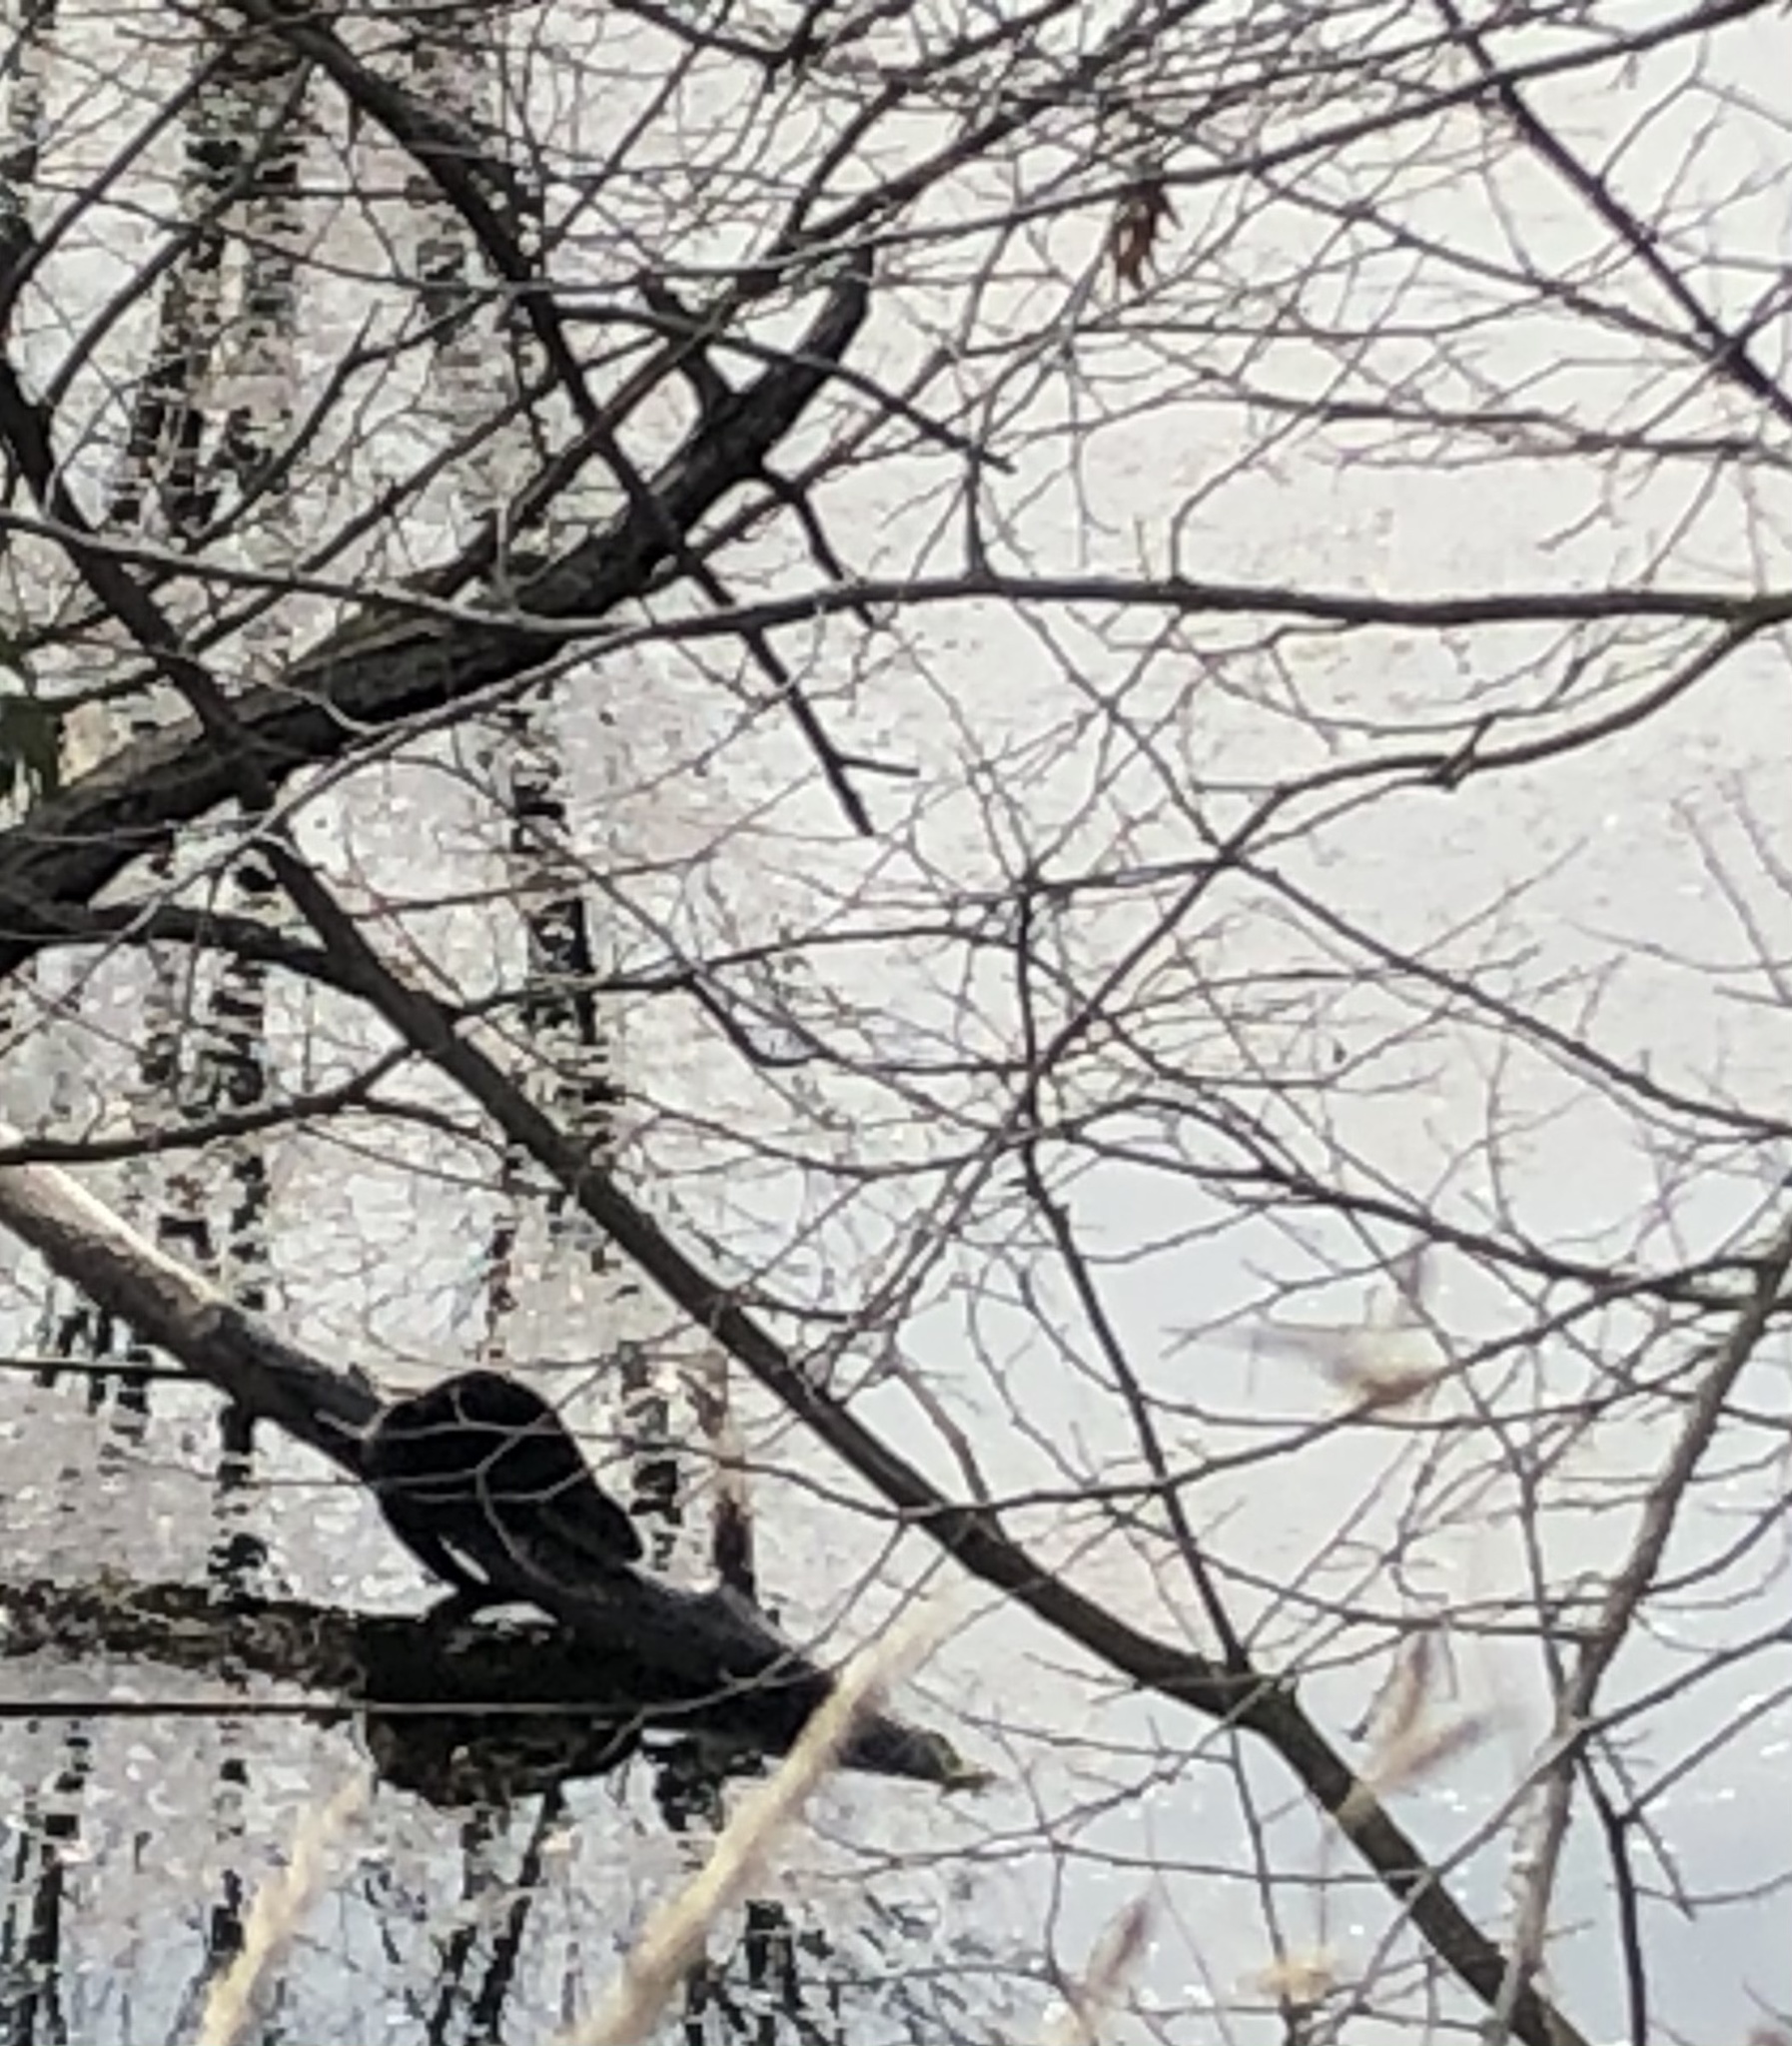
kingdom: Animalia
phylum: Chordata
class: Mammalia
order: Carnivora
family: Mustelidae
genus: Lontra
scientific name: Lontra canadensis
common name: North american river otter
